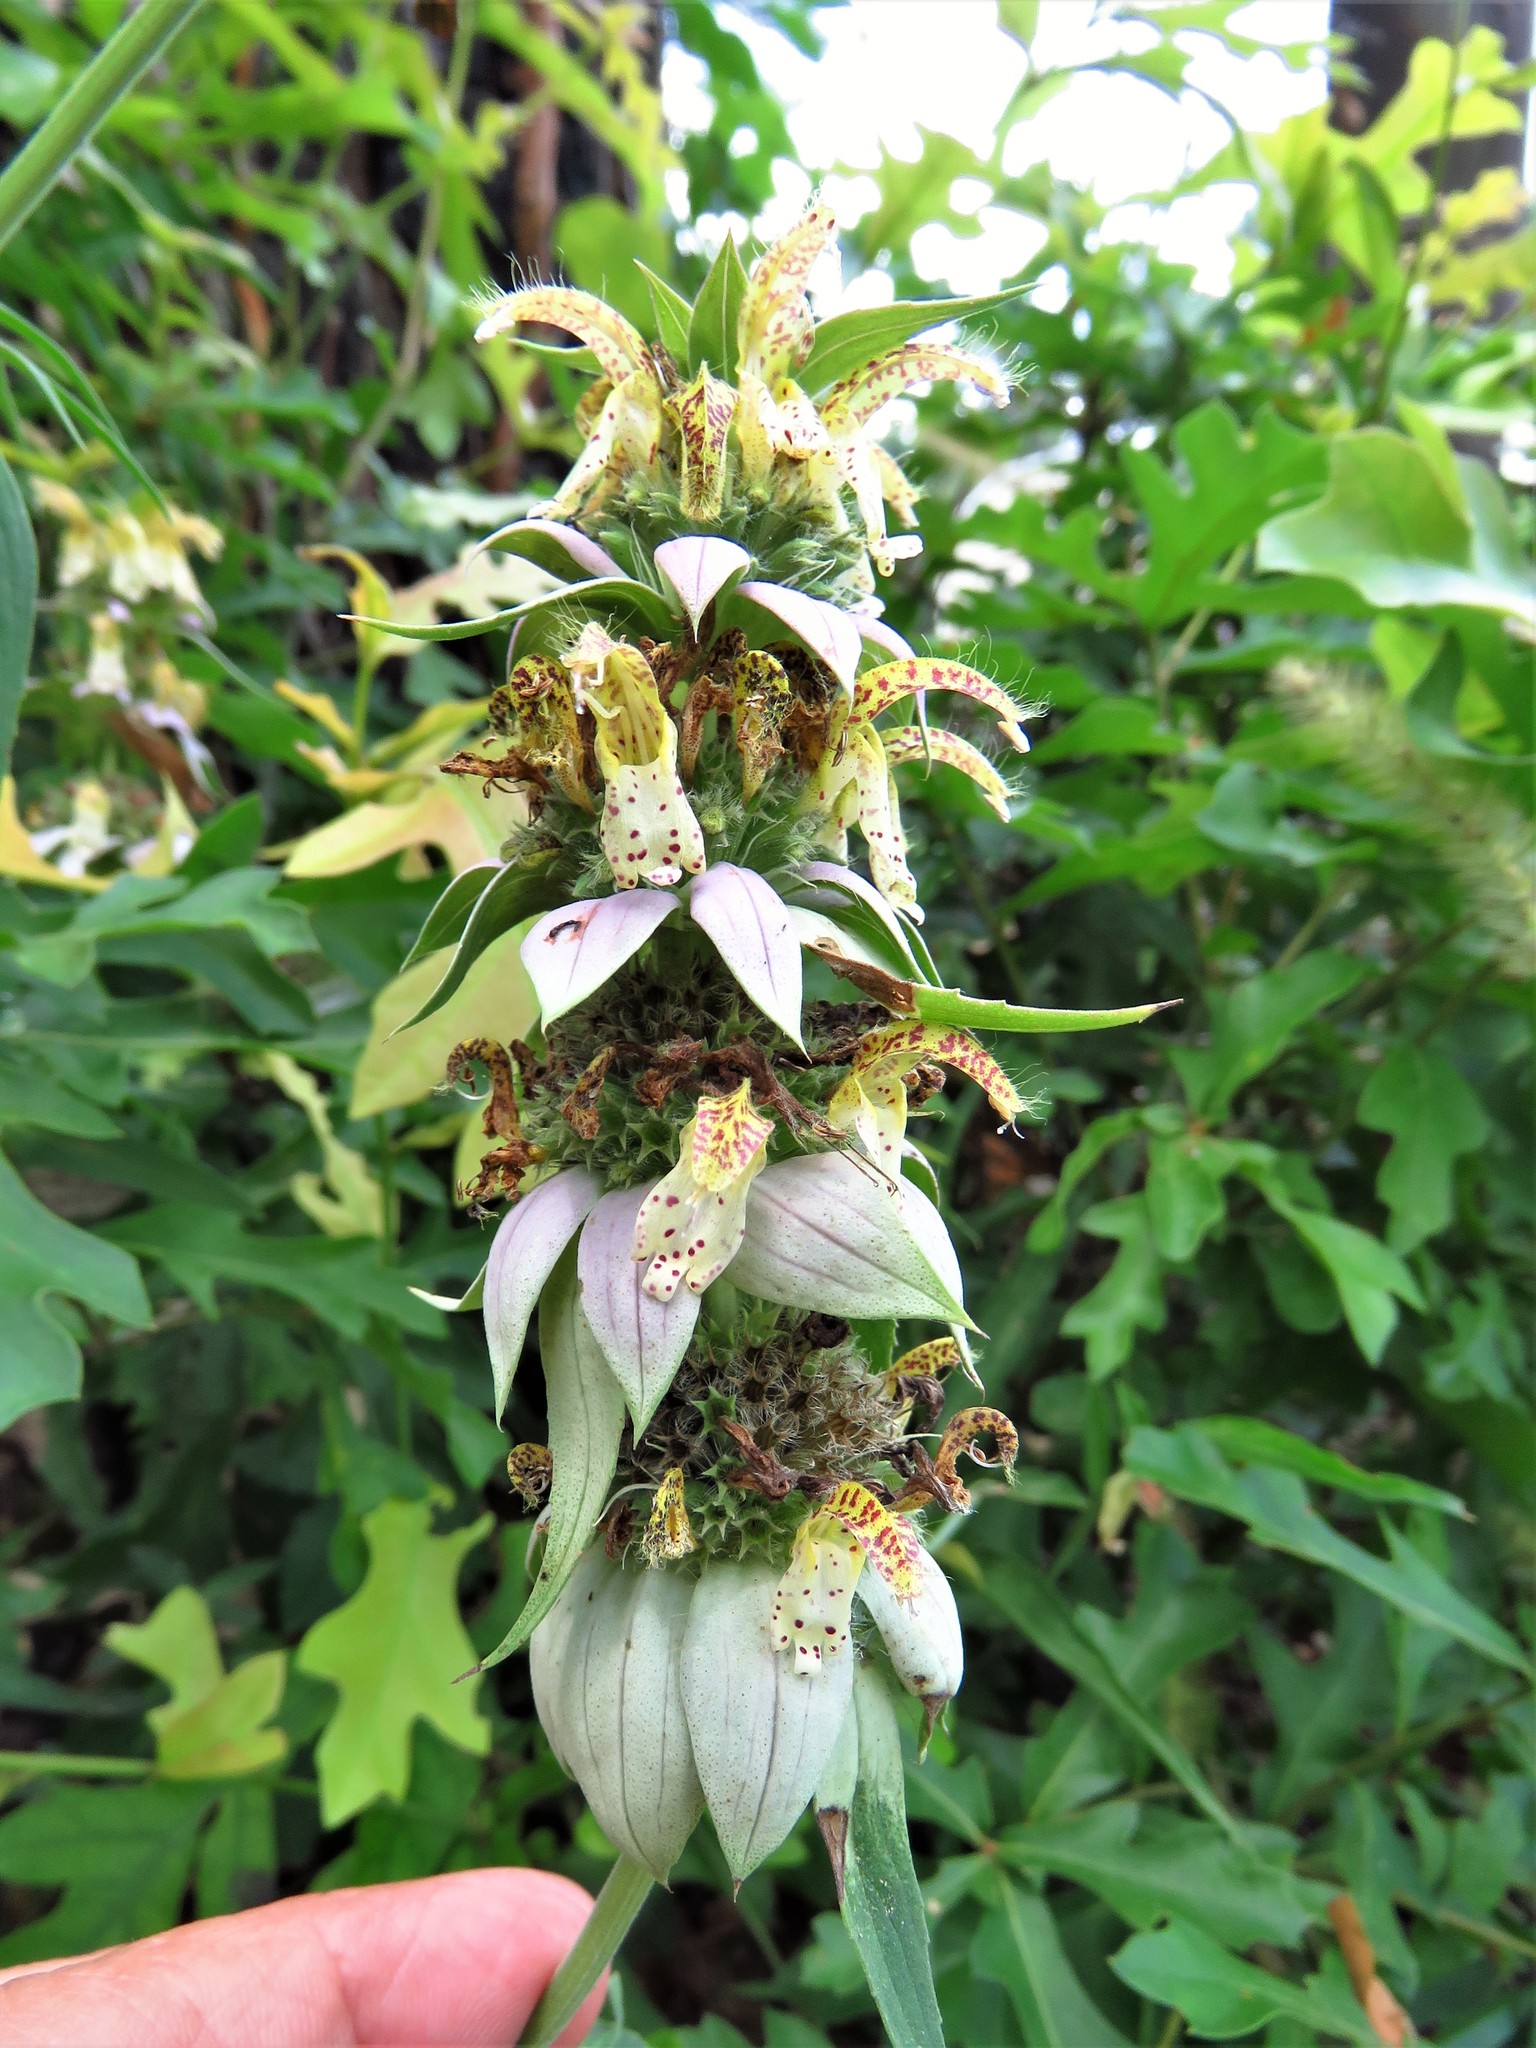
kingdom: Plantae
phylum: Tracheophyta
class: Magnoliopsida
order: Lamiales
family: Lamiaceae
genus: Monarda
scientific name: Monarda punctata
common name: Dotted monarda
